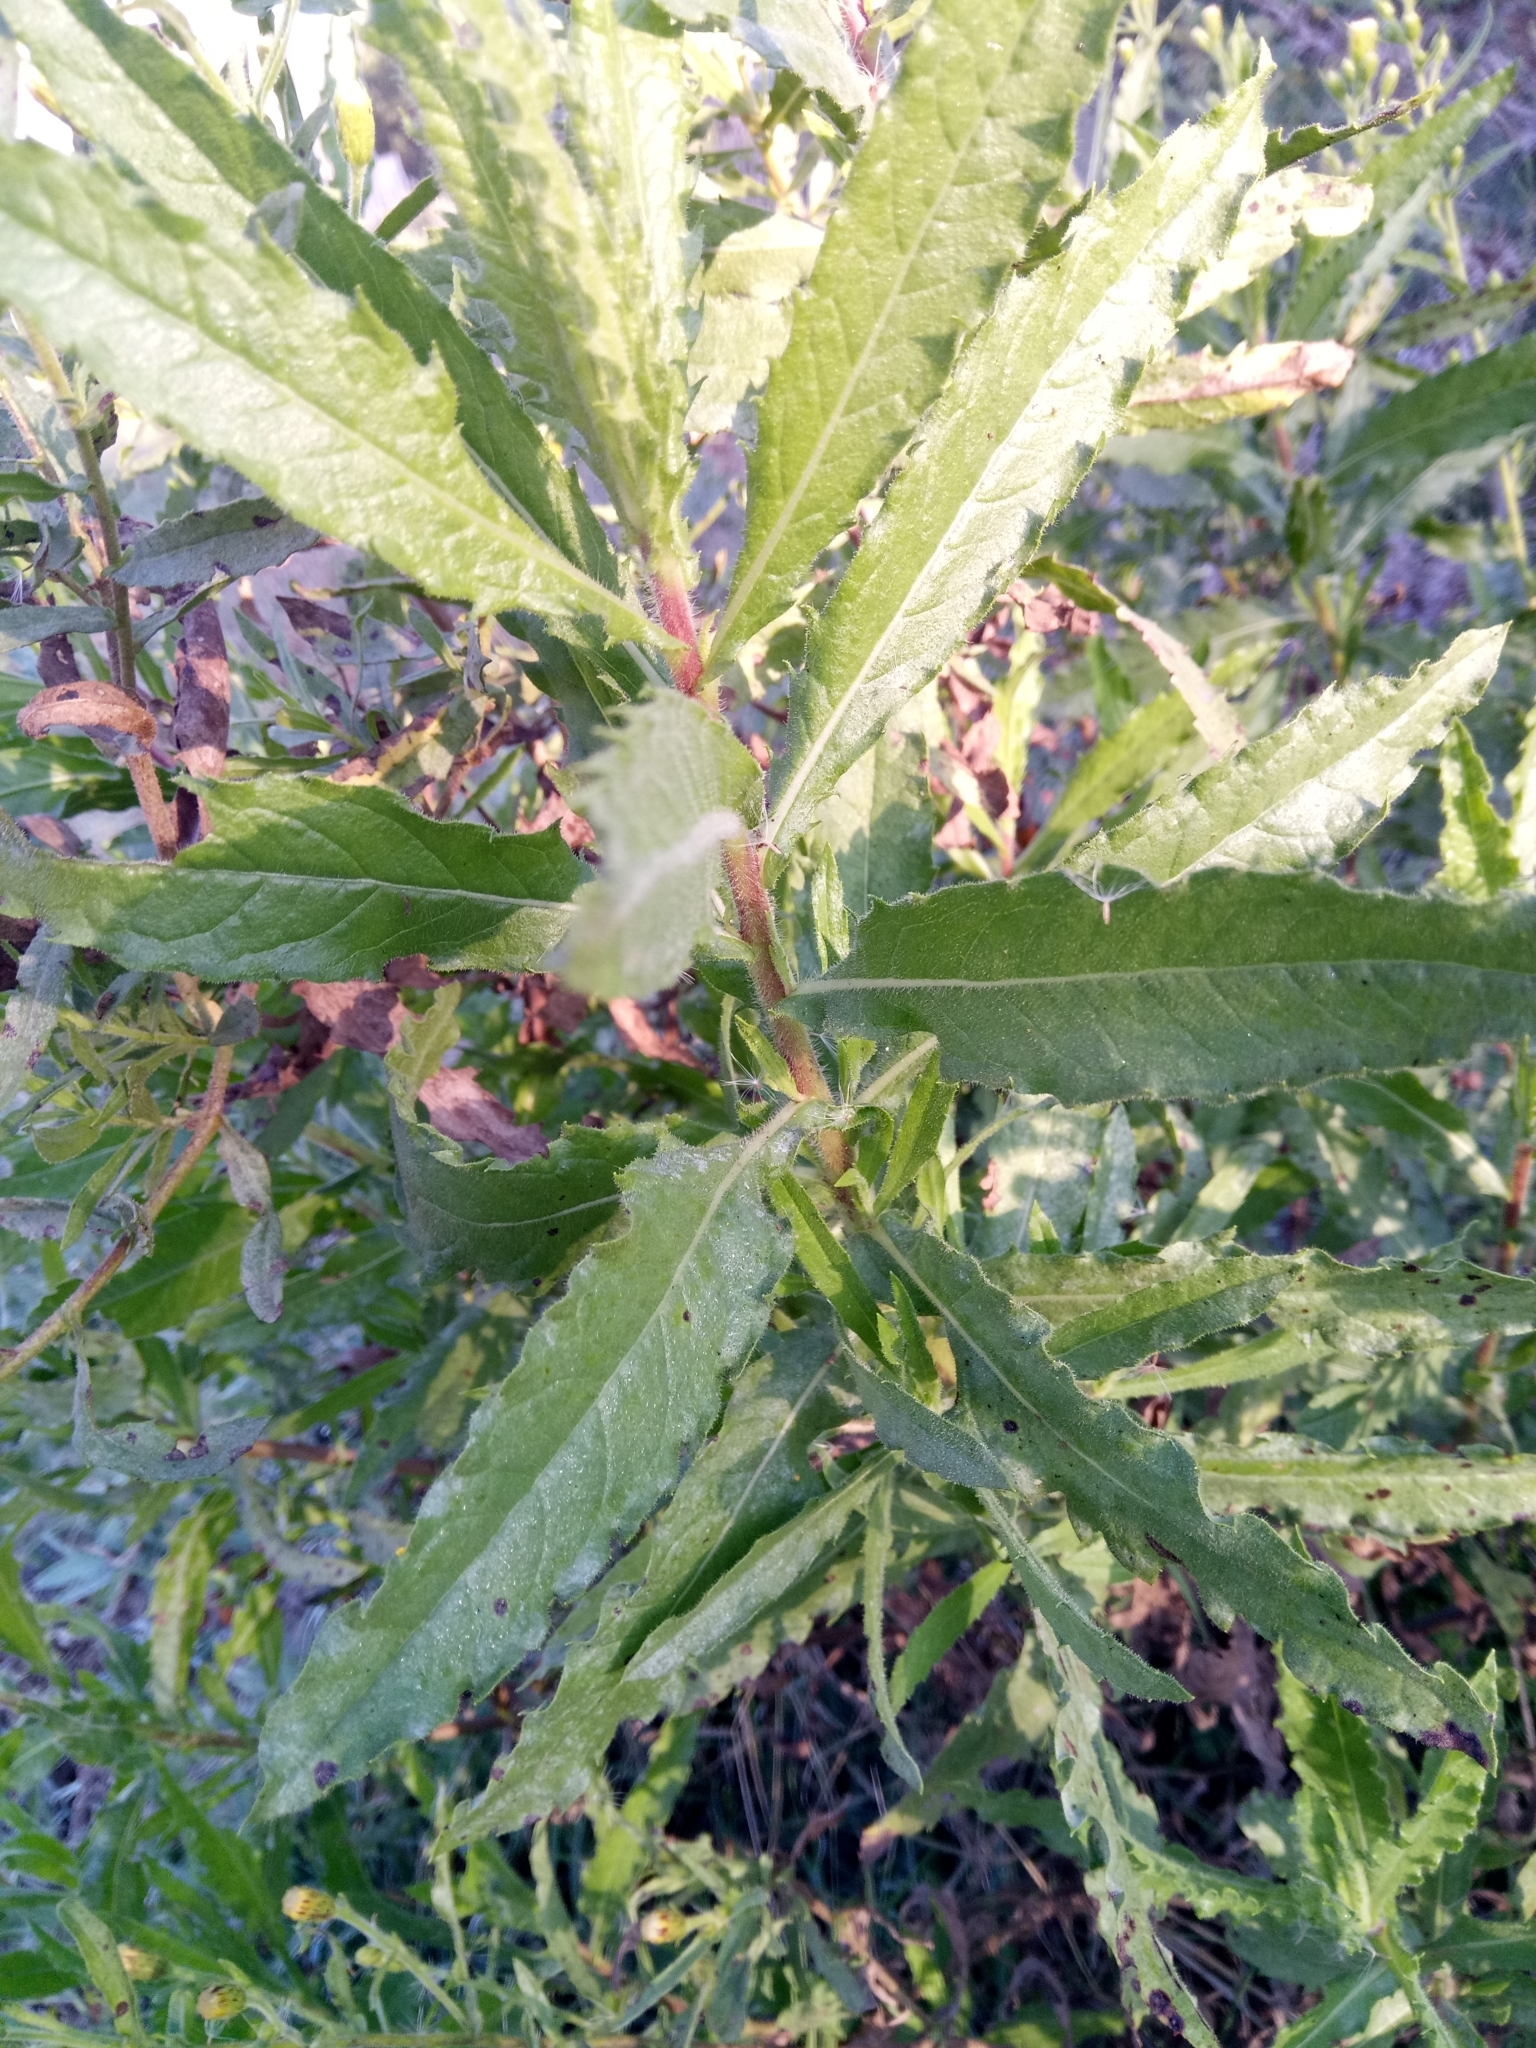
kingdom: Plantae
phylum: Tracheophyta
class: Magnoliopsida
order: Asterales
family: Asteraceae
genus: Dittrichia
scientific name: Dittrichia viscosa
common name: Woody fleabane
